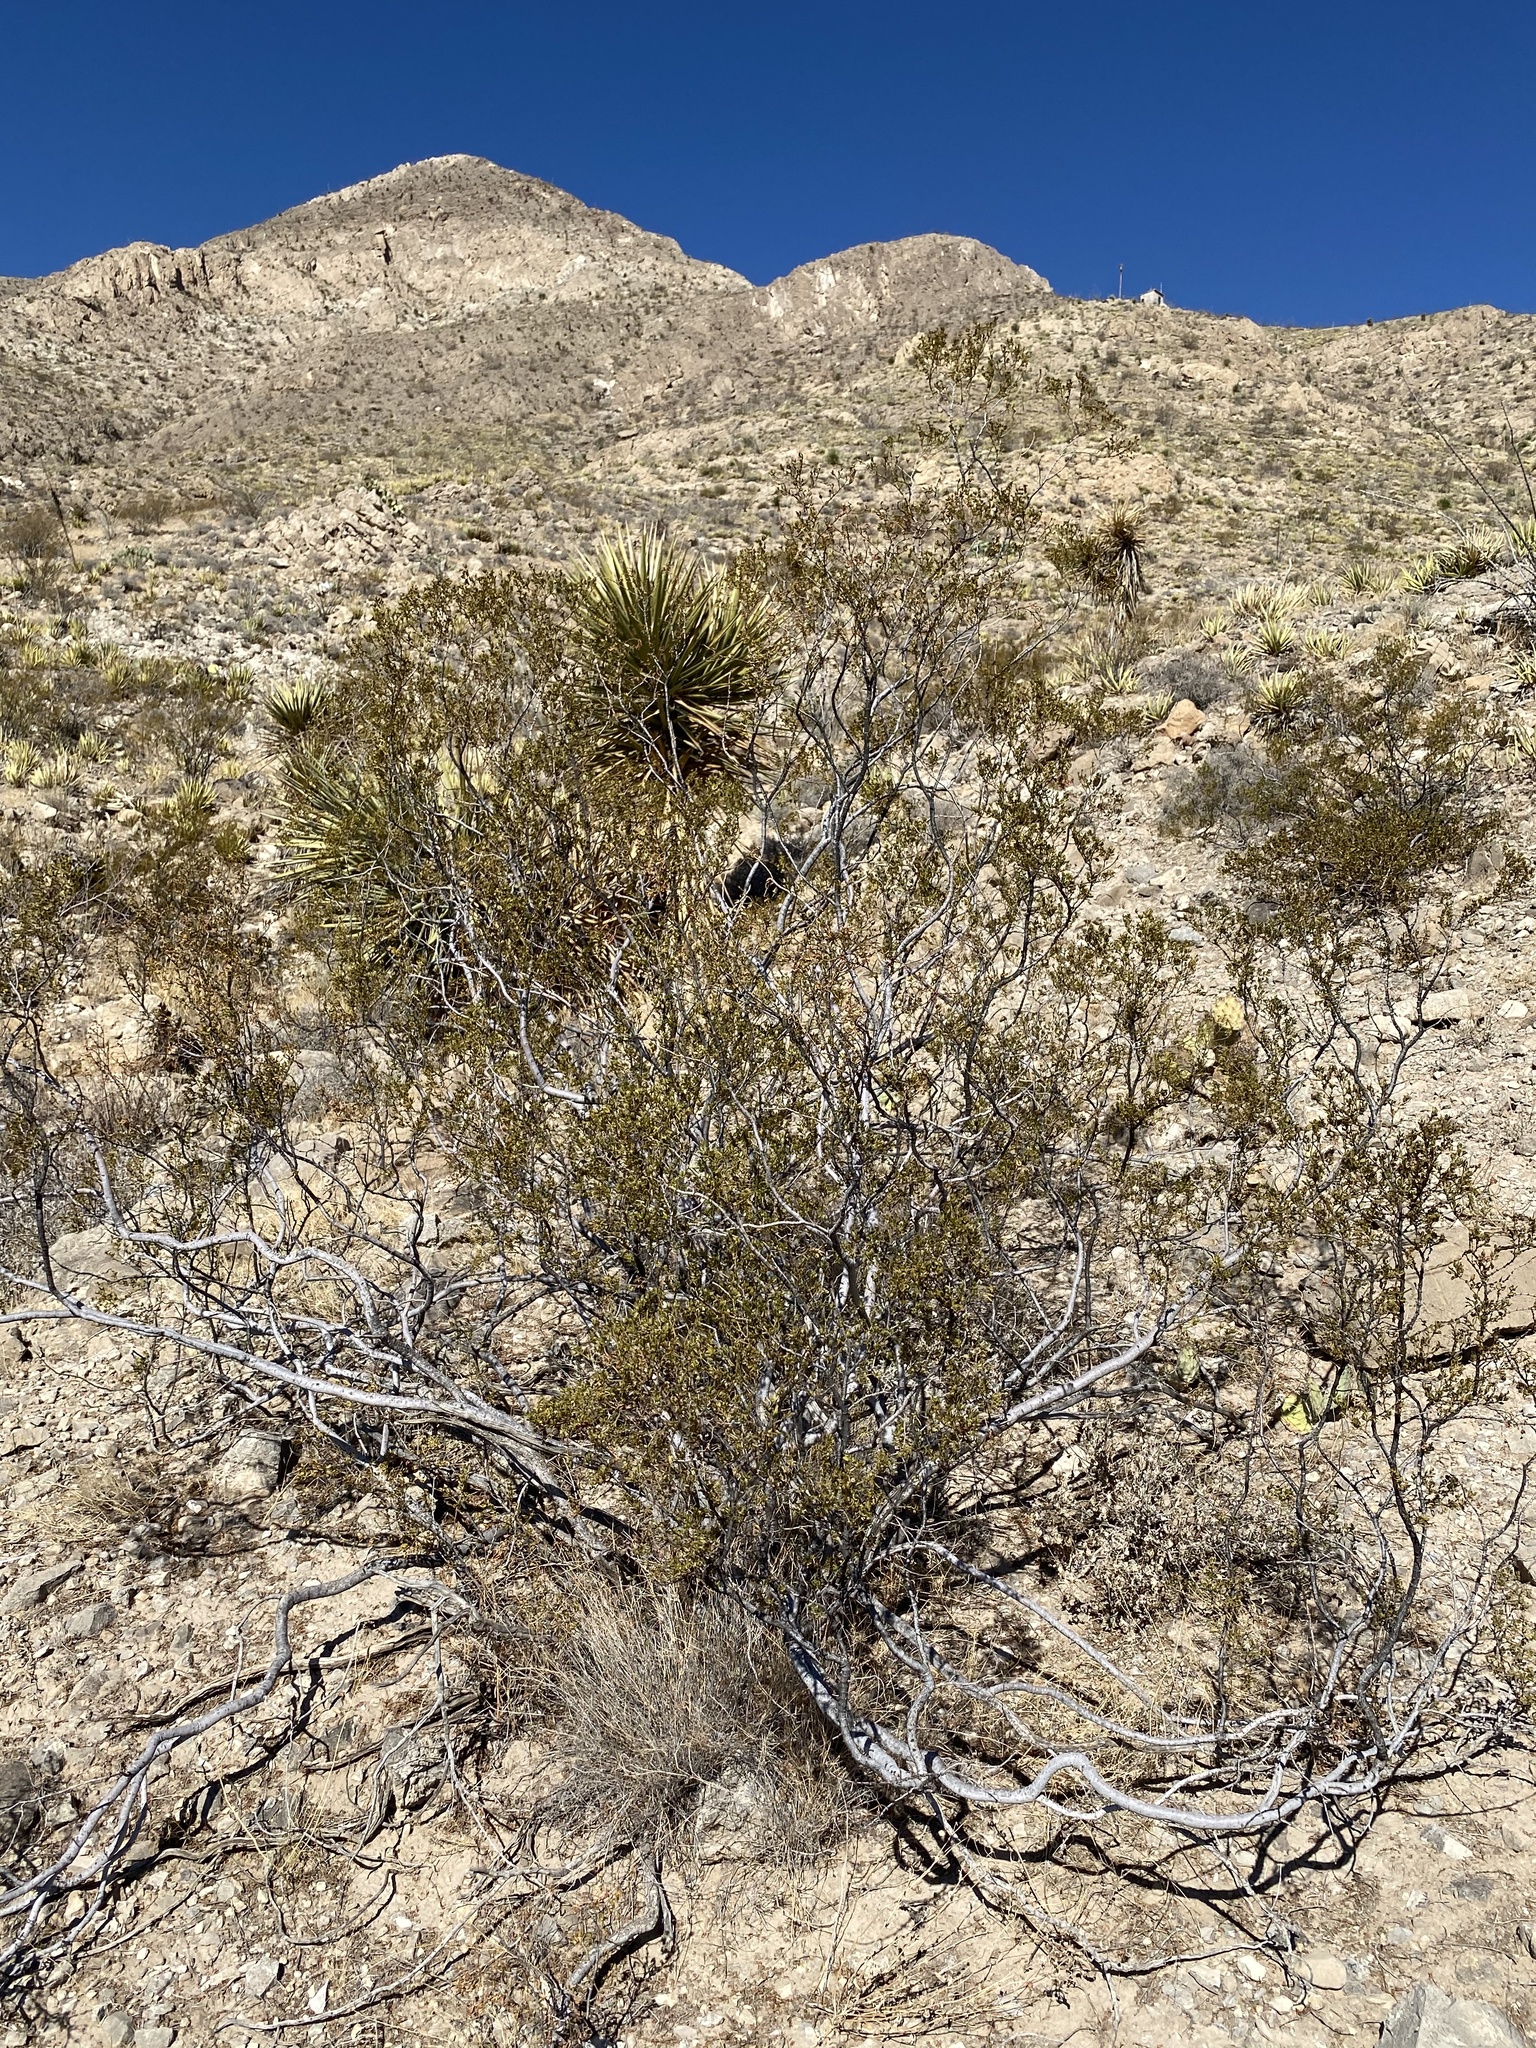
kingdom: Plantae
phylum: Tracheophyta
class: Magnoliopsida
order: Zygophyllales
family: Zygophyllaceae
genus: Larrea
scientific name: Larrea tridentata
